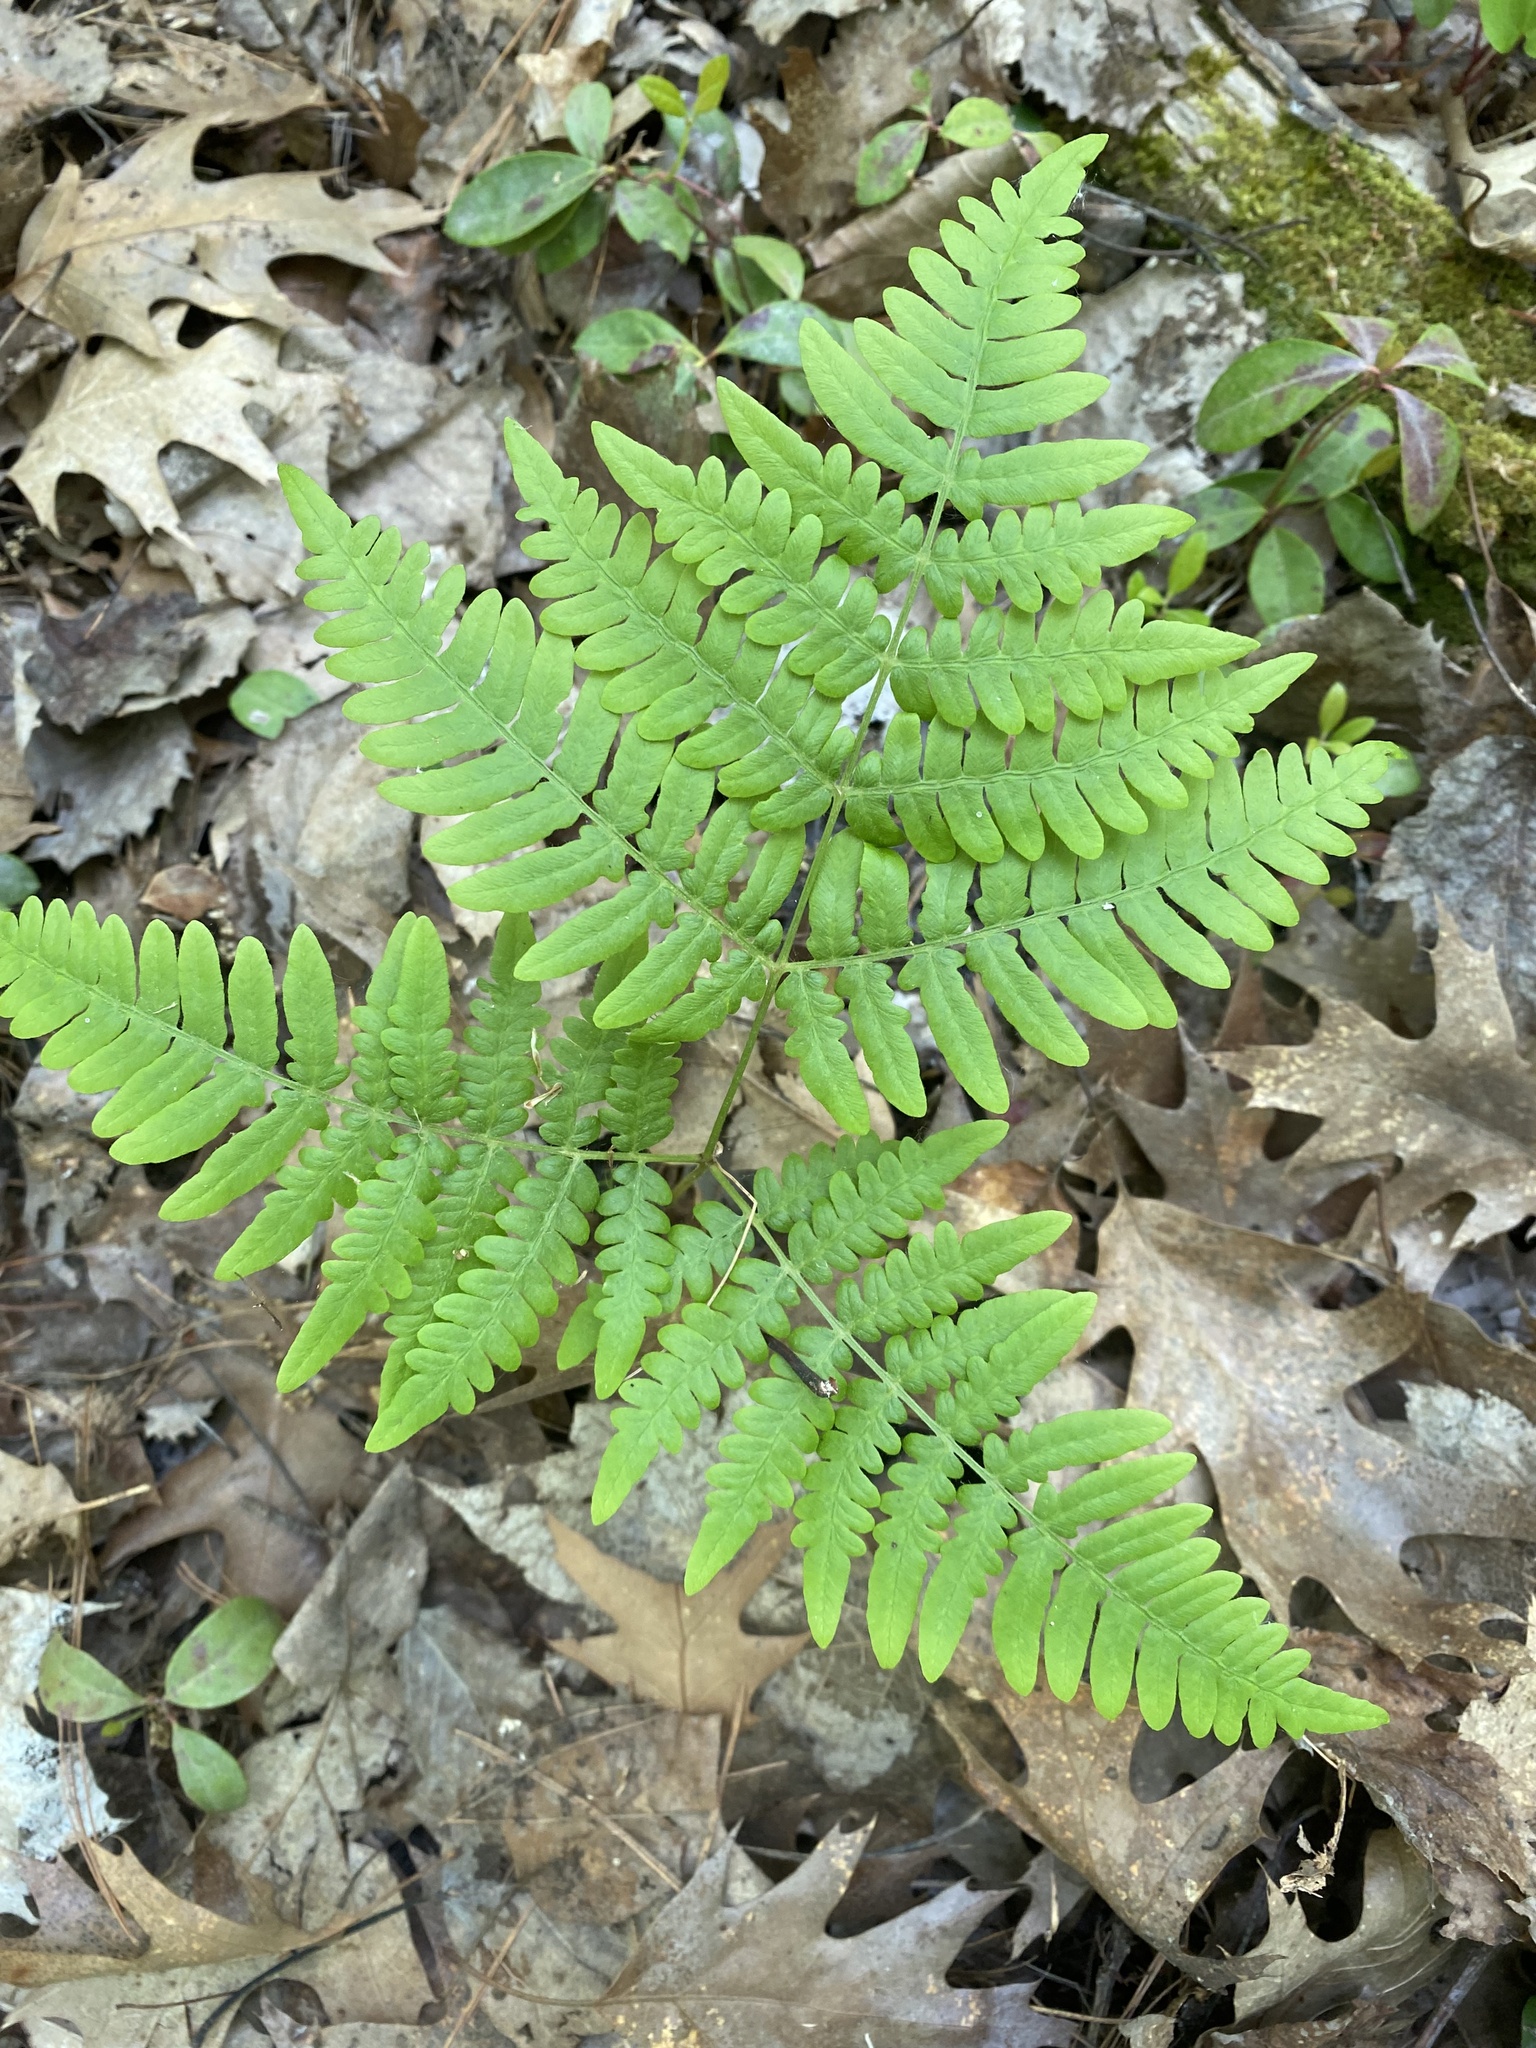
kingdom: Plantae
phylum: Tracheophyta
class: Polypodiopsida
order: Polypodiales
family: Dennstaedtiaceae
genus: Pteridium
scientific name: Pteridium aquilinum
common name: Bracken
